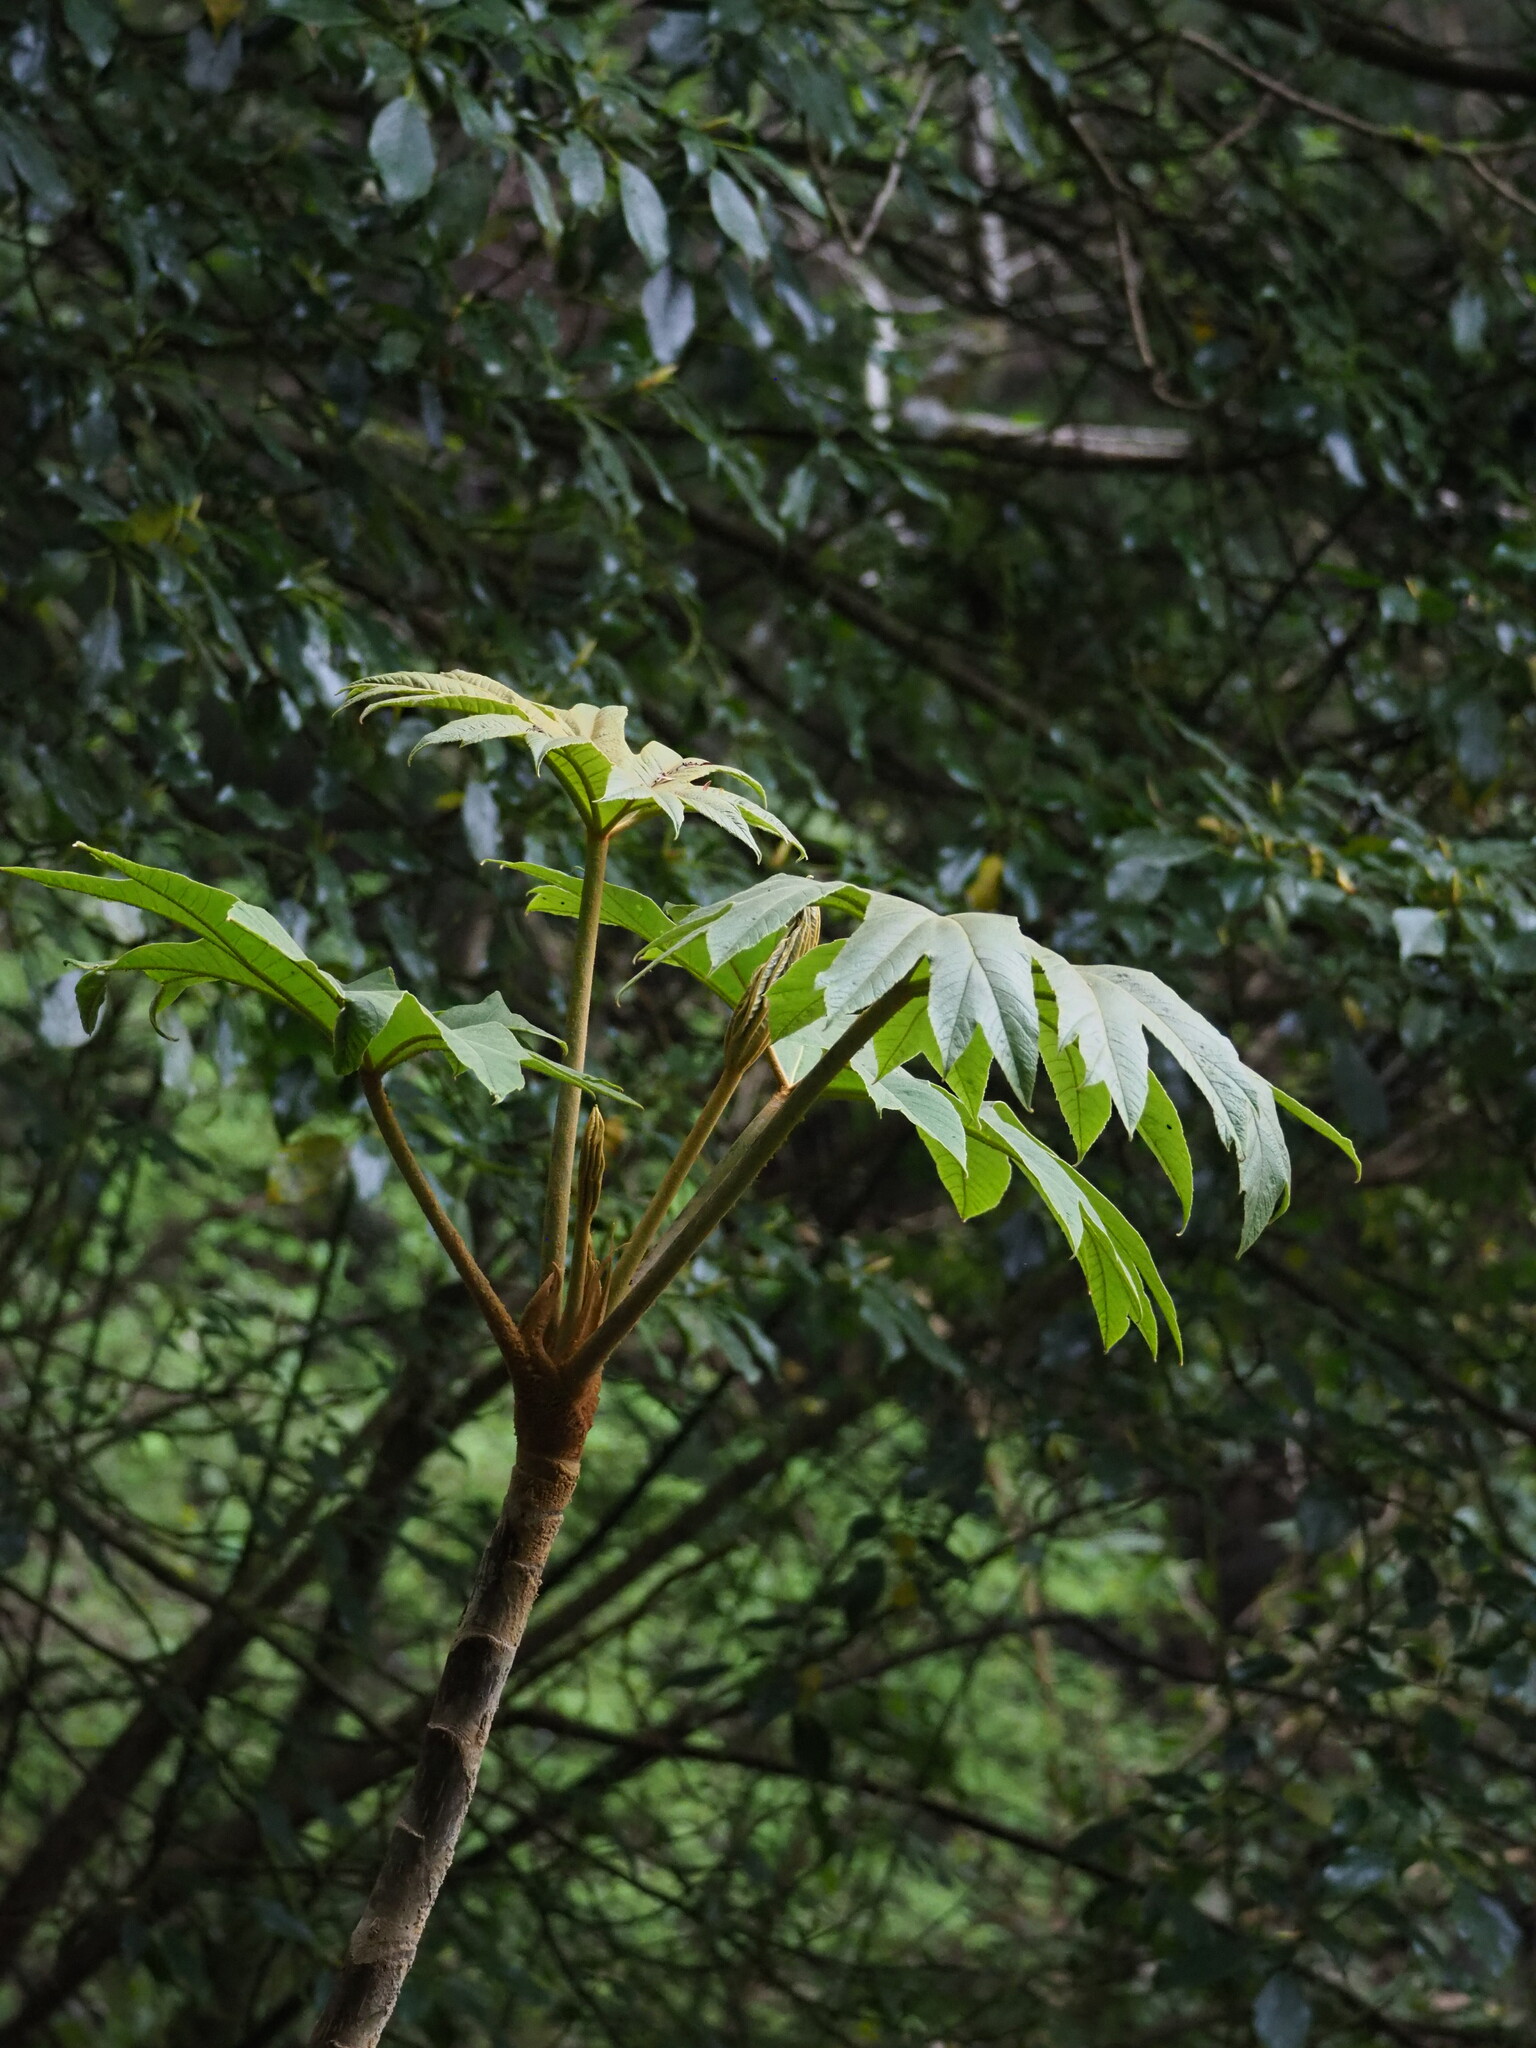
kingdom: Plantae
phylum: Tracheophyta
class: Magnoliopsida
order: Apiales
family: Araliaceae
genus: Tetrapanax
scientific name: Tetrapanax papyrifer
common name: Rice-paper plant
